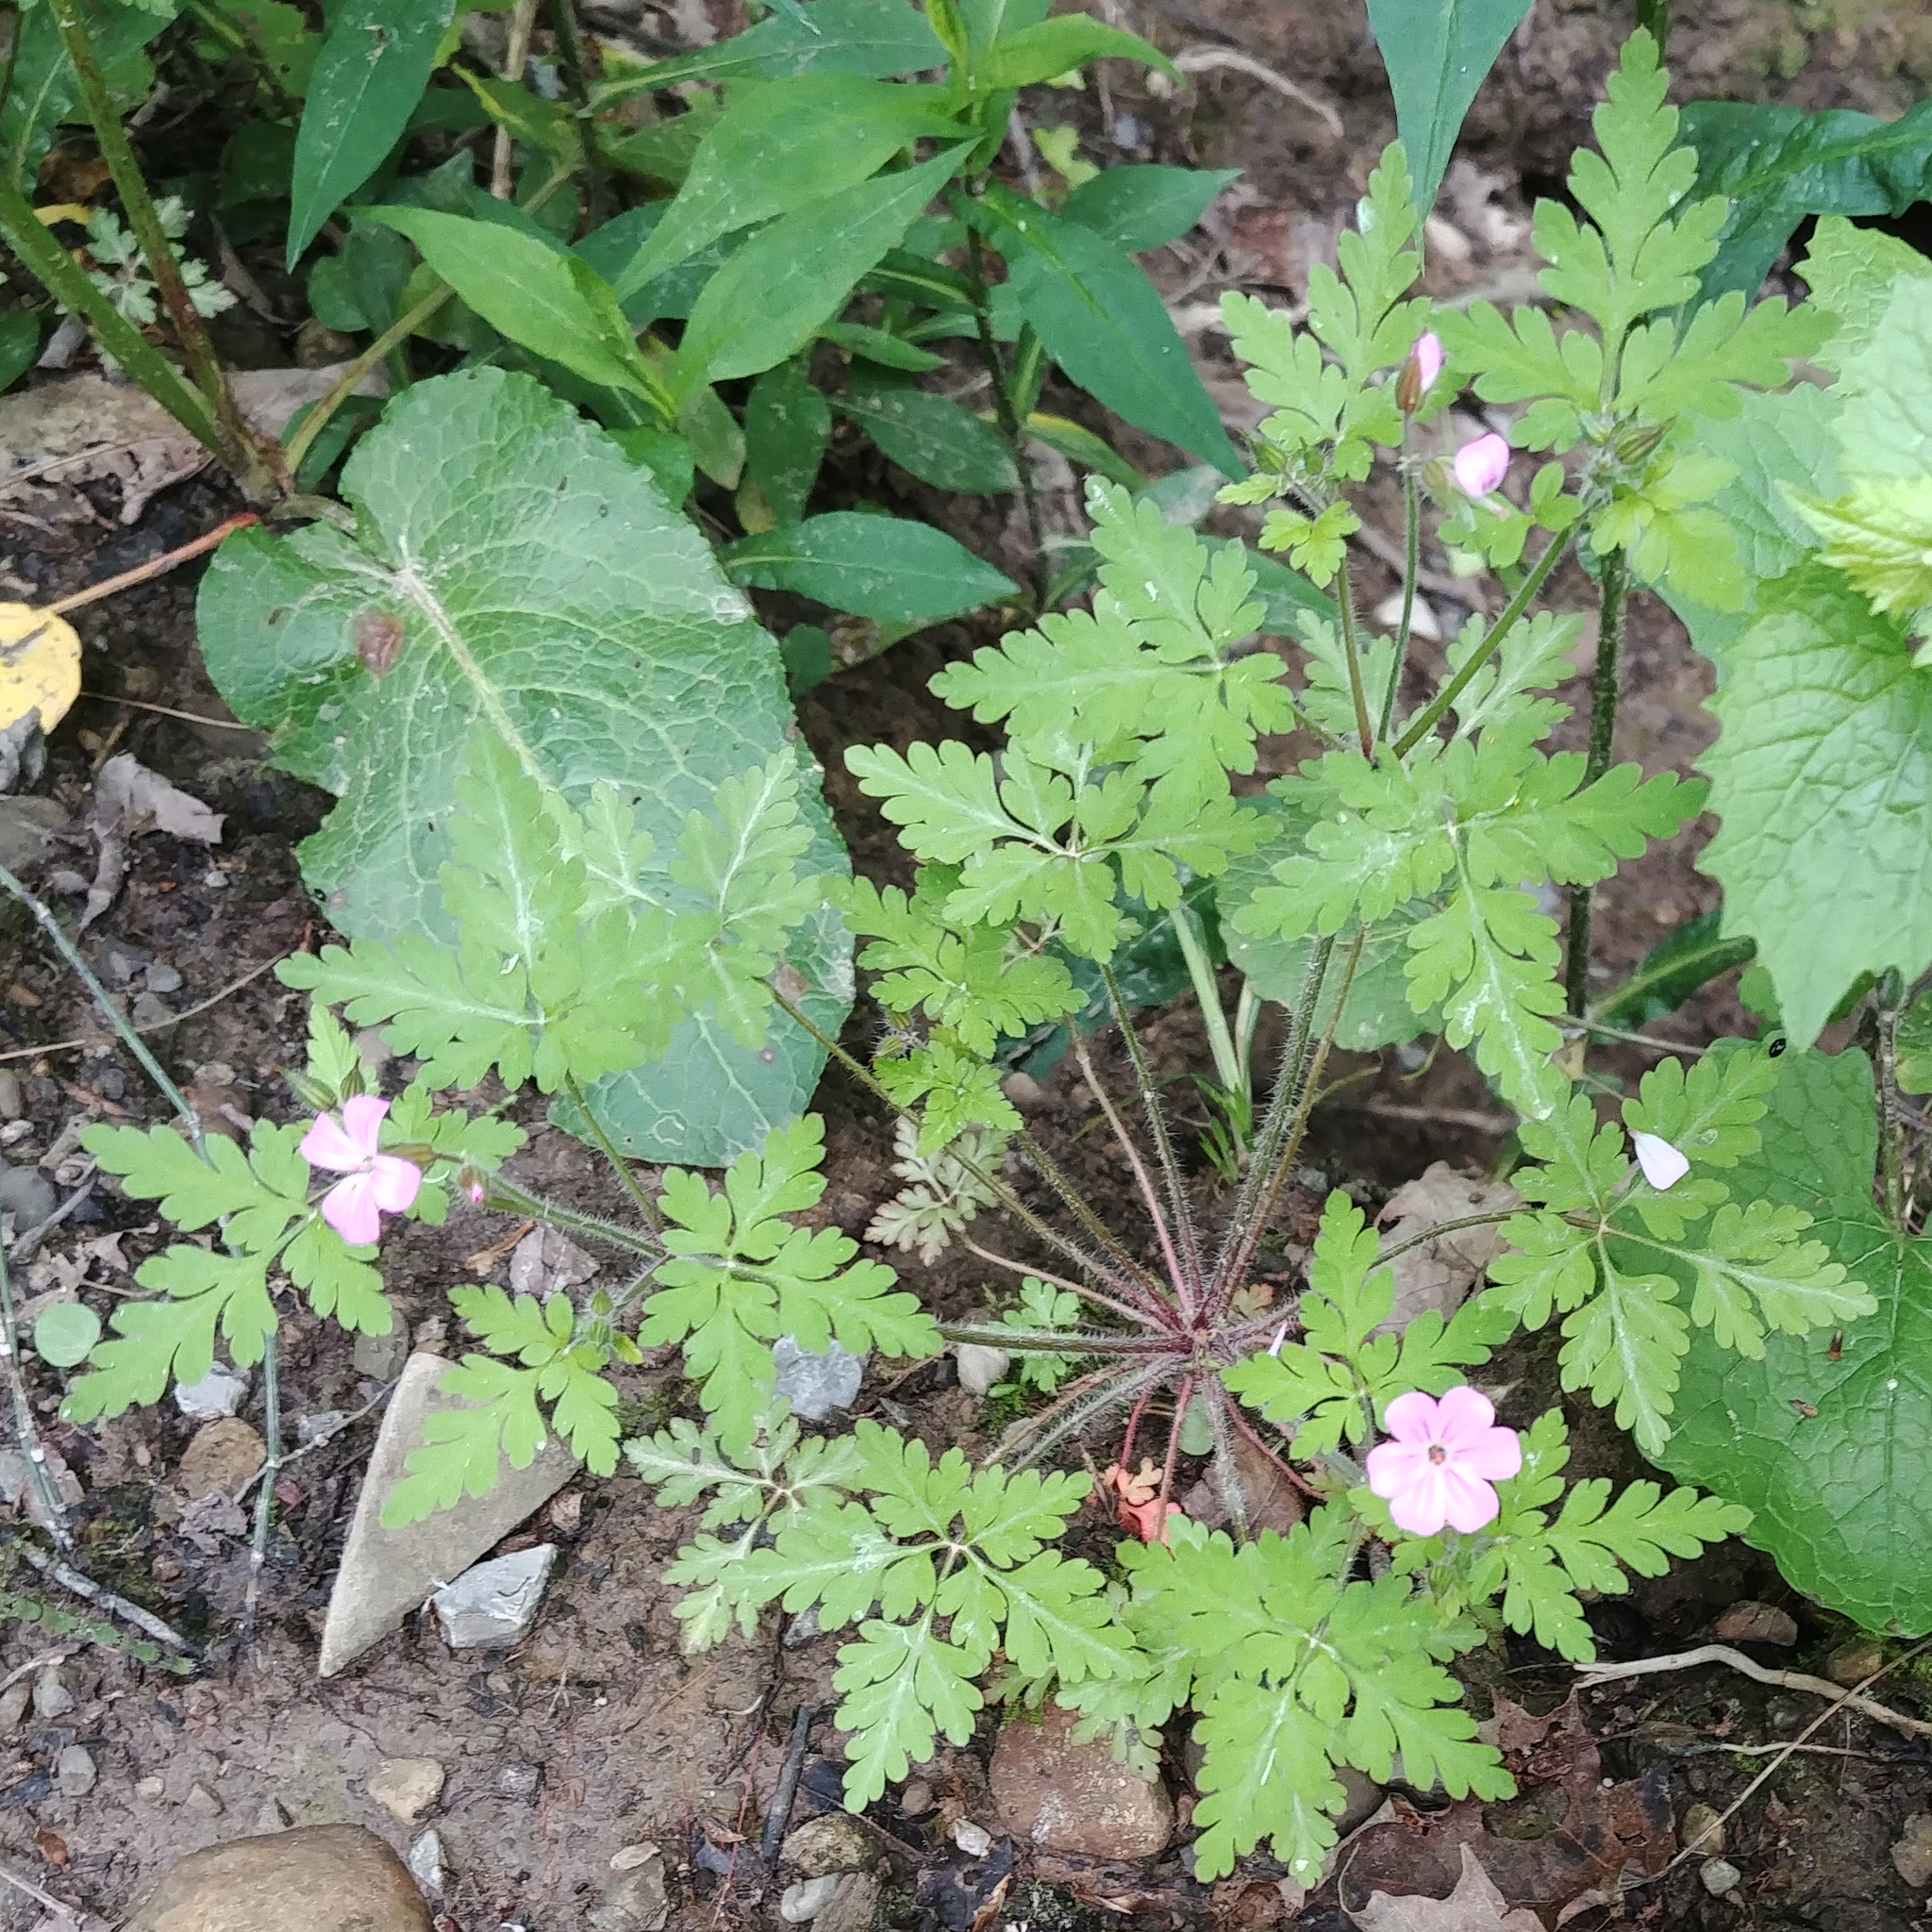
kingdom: Plantae
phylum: Tracheophyta
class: Magnoliopsida
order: Geraniales
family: Geraniaceae
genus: Geranium
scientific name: Geranium robertianum
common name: Herb-robert
